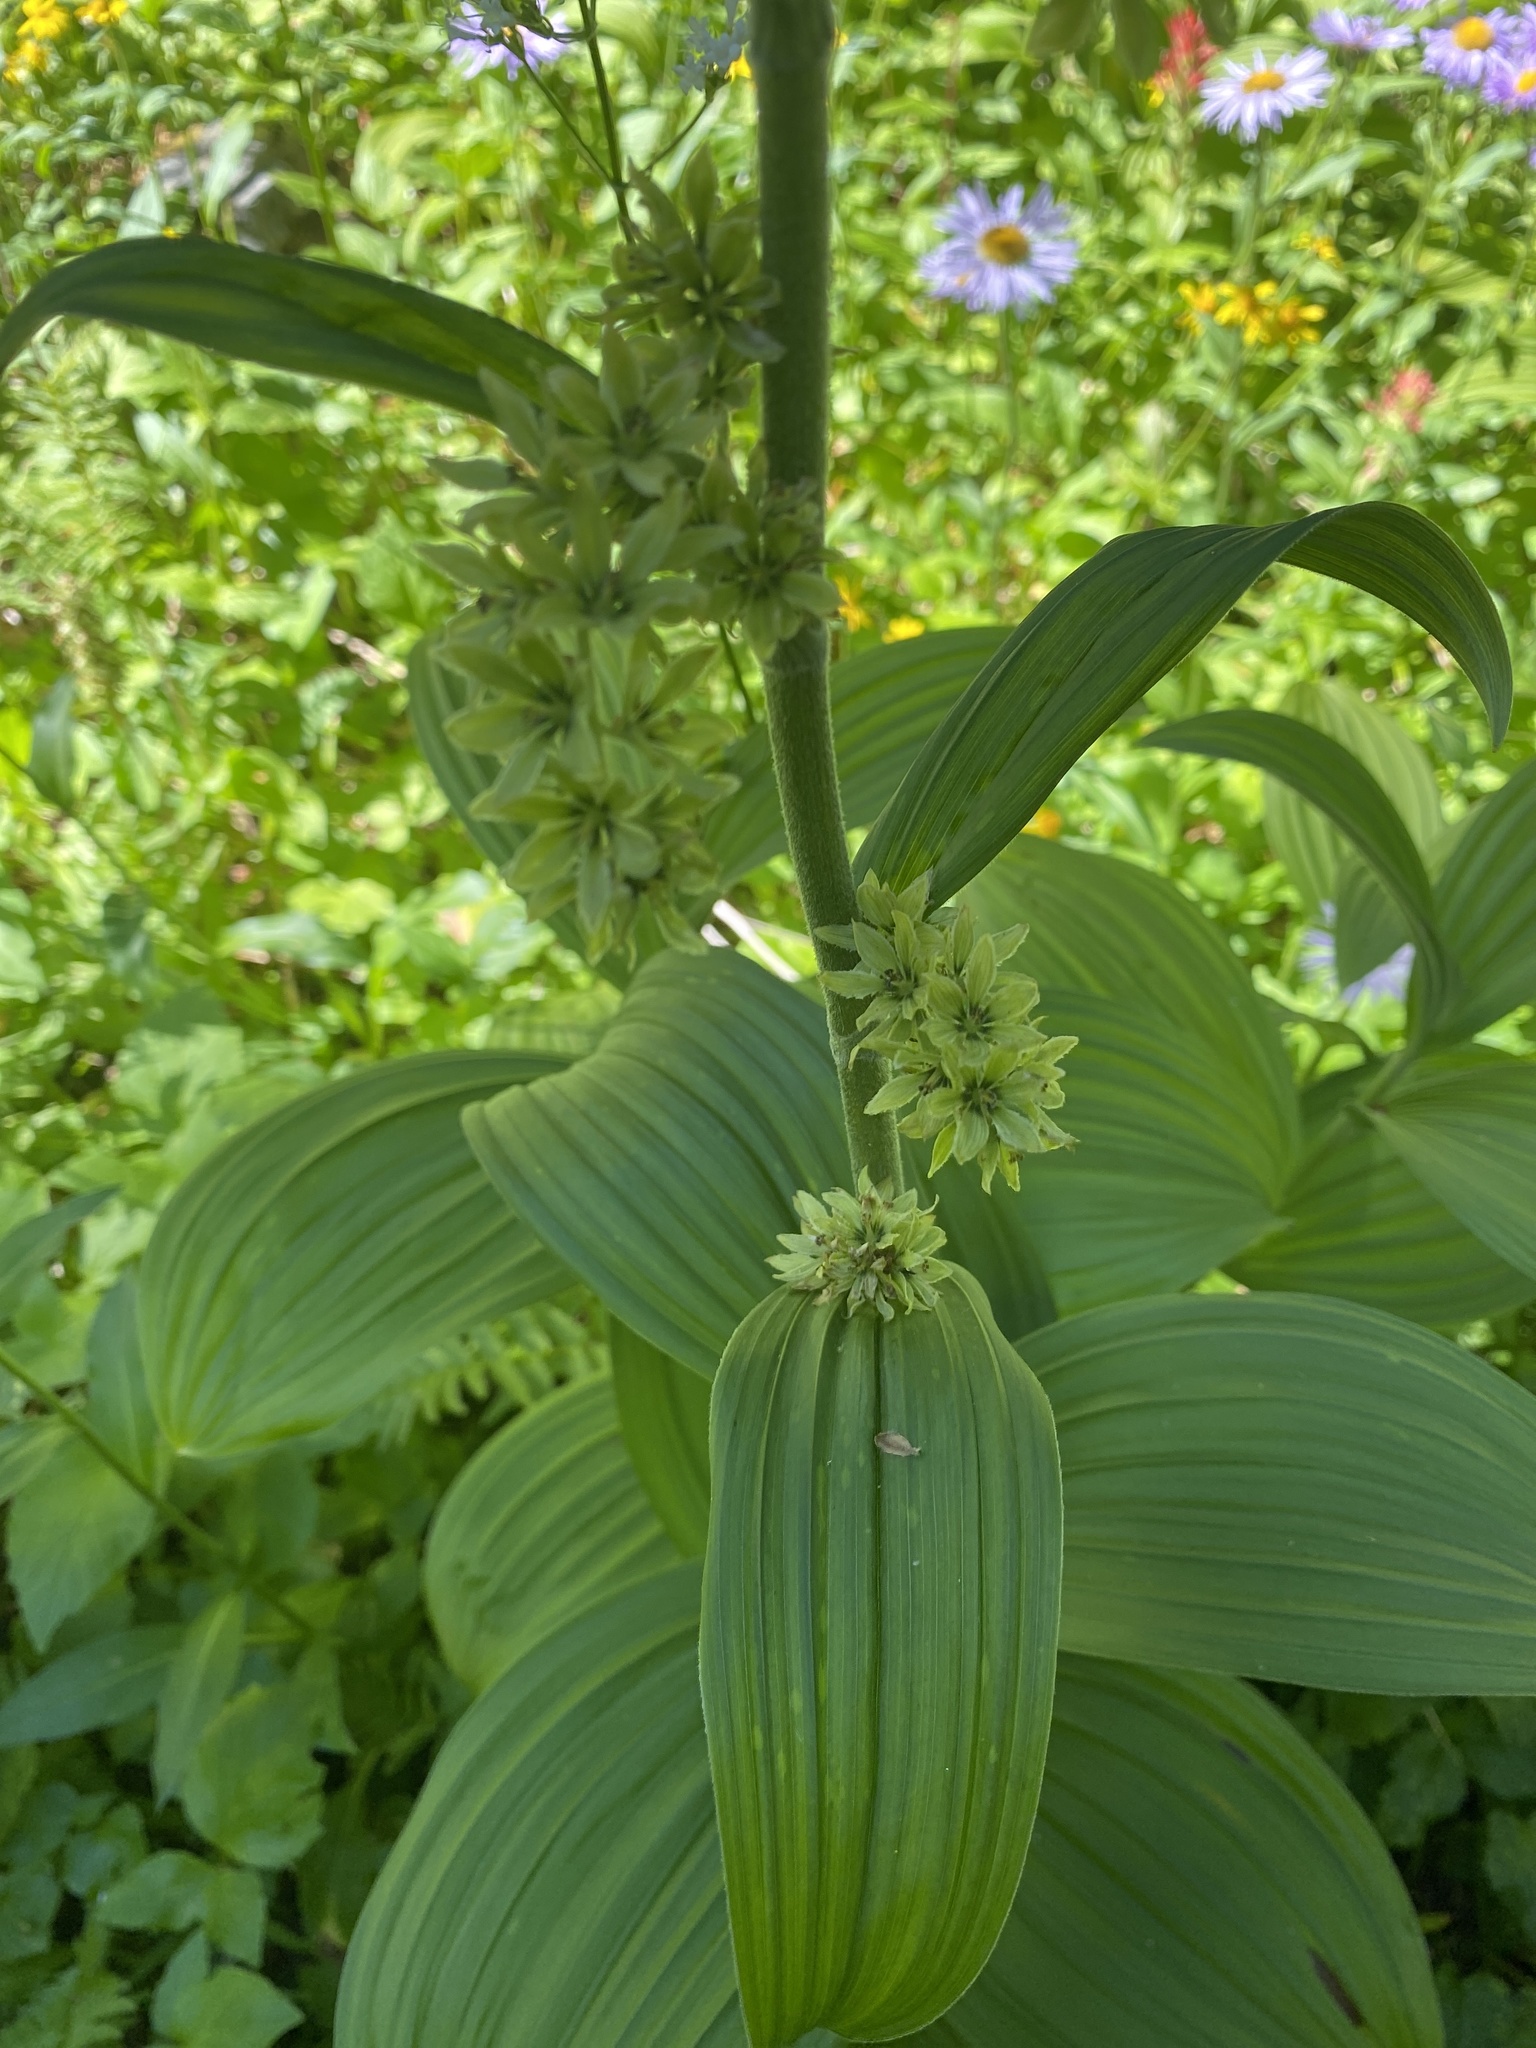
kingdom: Plantae
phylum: Tracheophyta
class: Liliopsida
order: Liliales
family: Melanthiaceae
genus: Veratrum
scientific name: Veratrum viride
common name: American false hellebore
